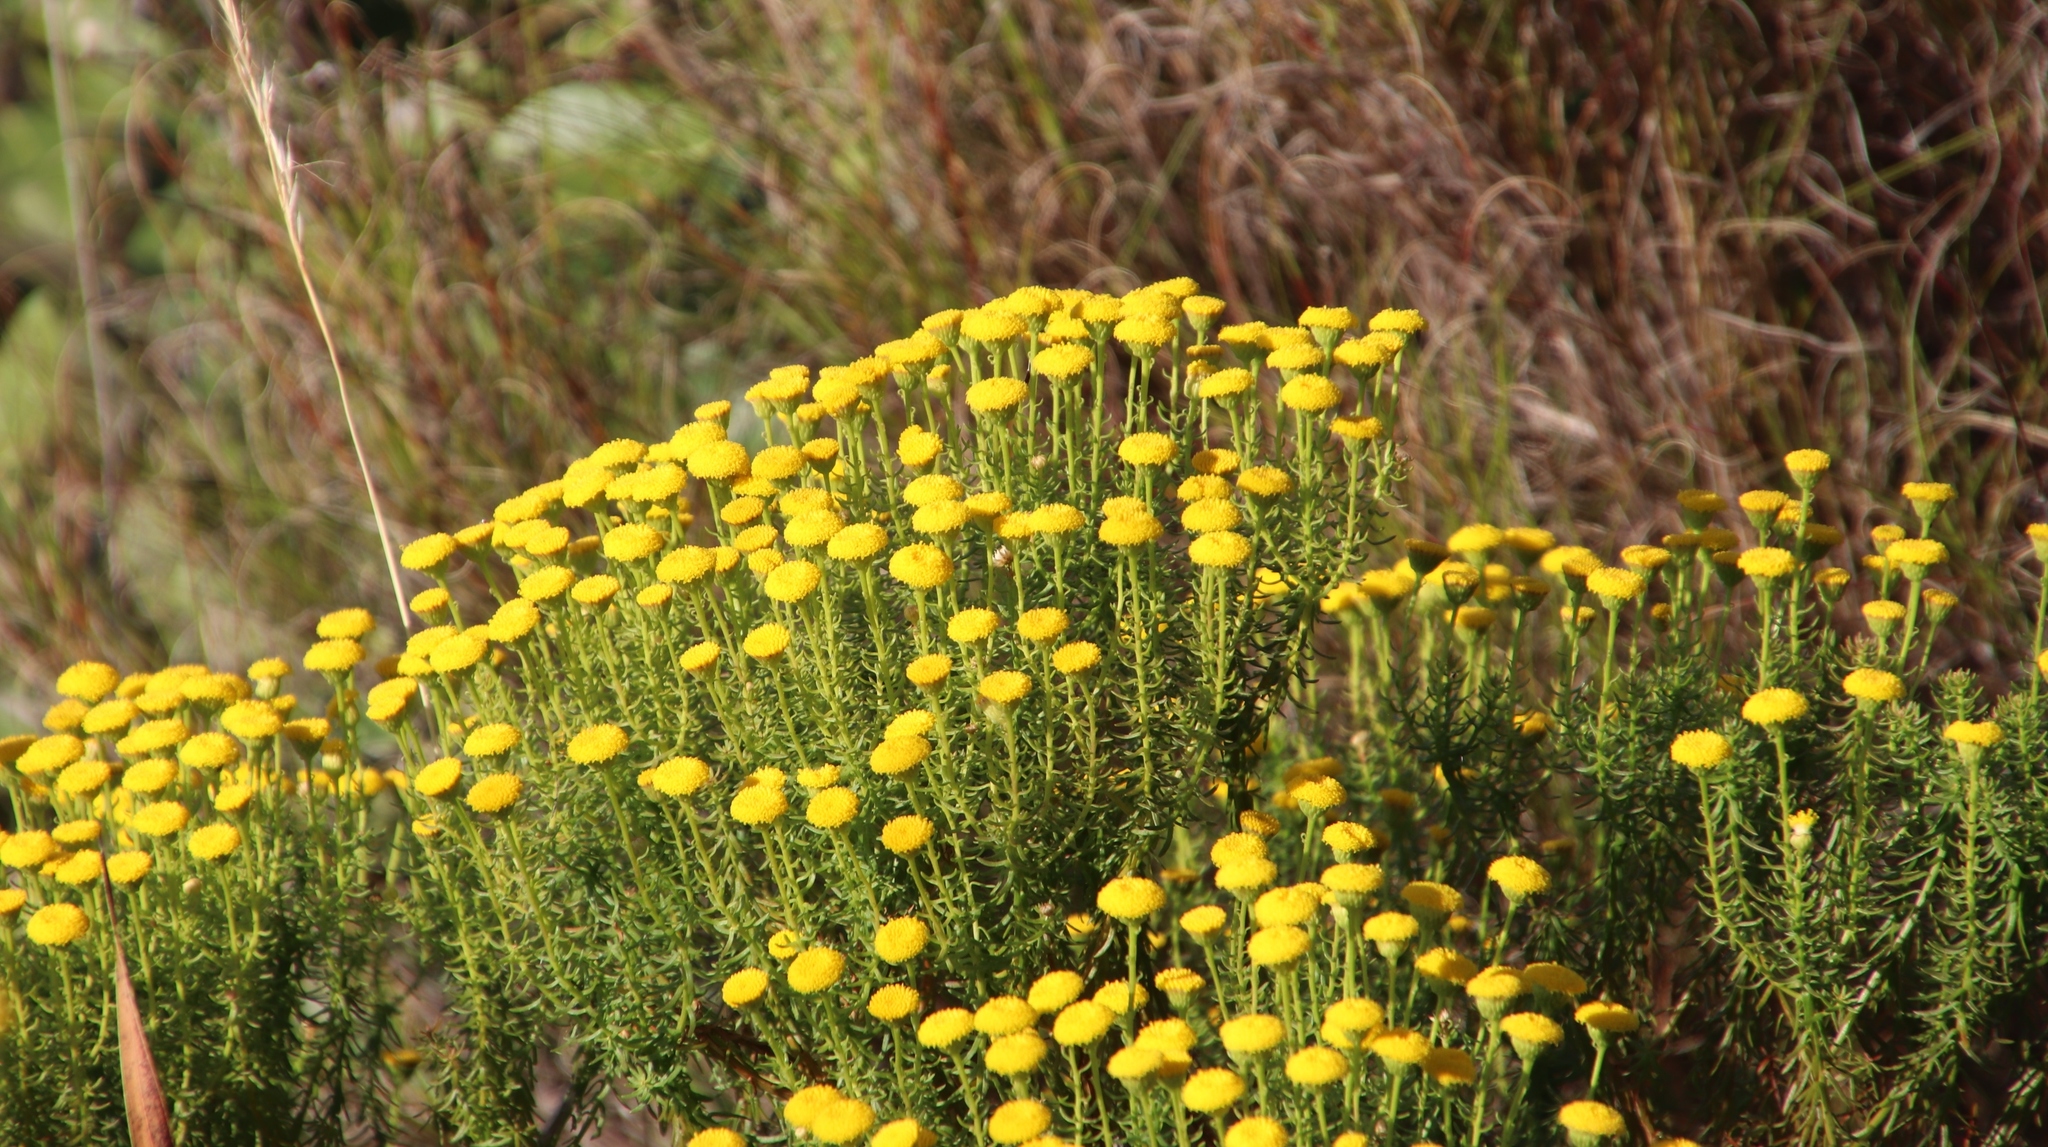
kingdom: Plantae
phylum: Tracheophyta
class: Magnoliopsida
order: Asterales
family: Asteraceae
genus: Chrysocoma
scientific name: Chrysocoma cernua
